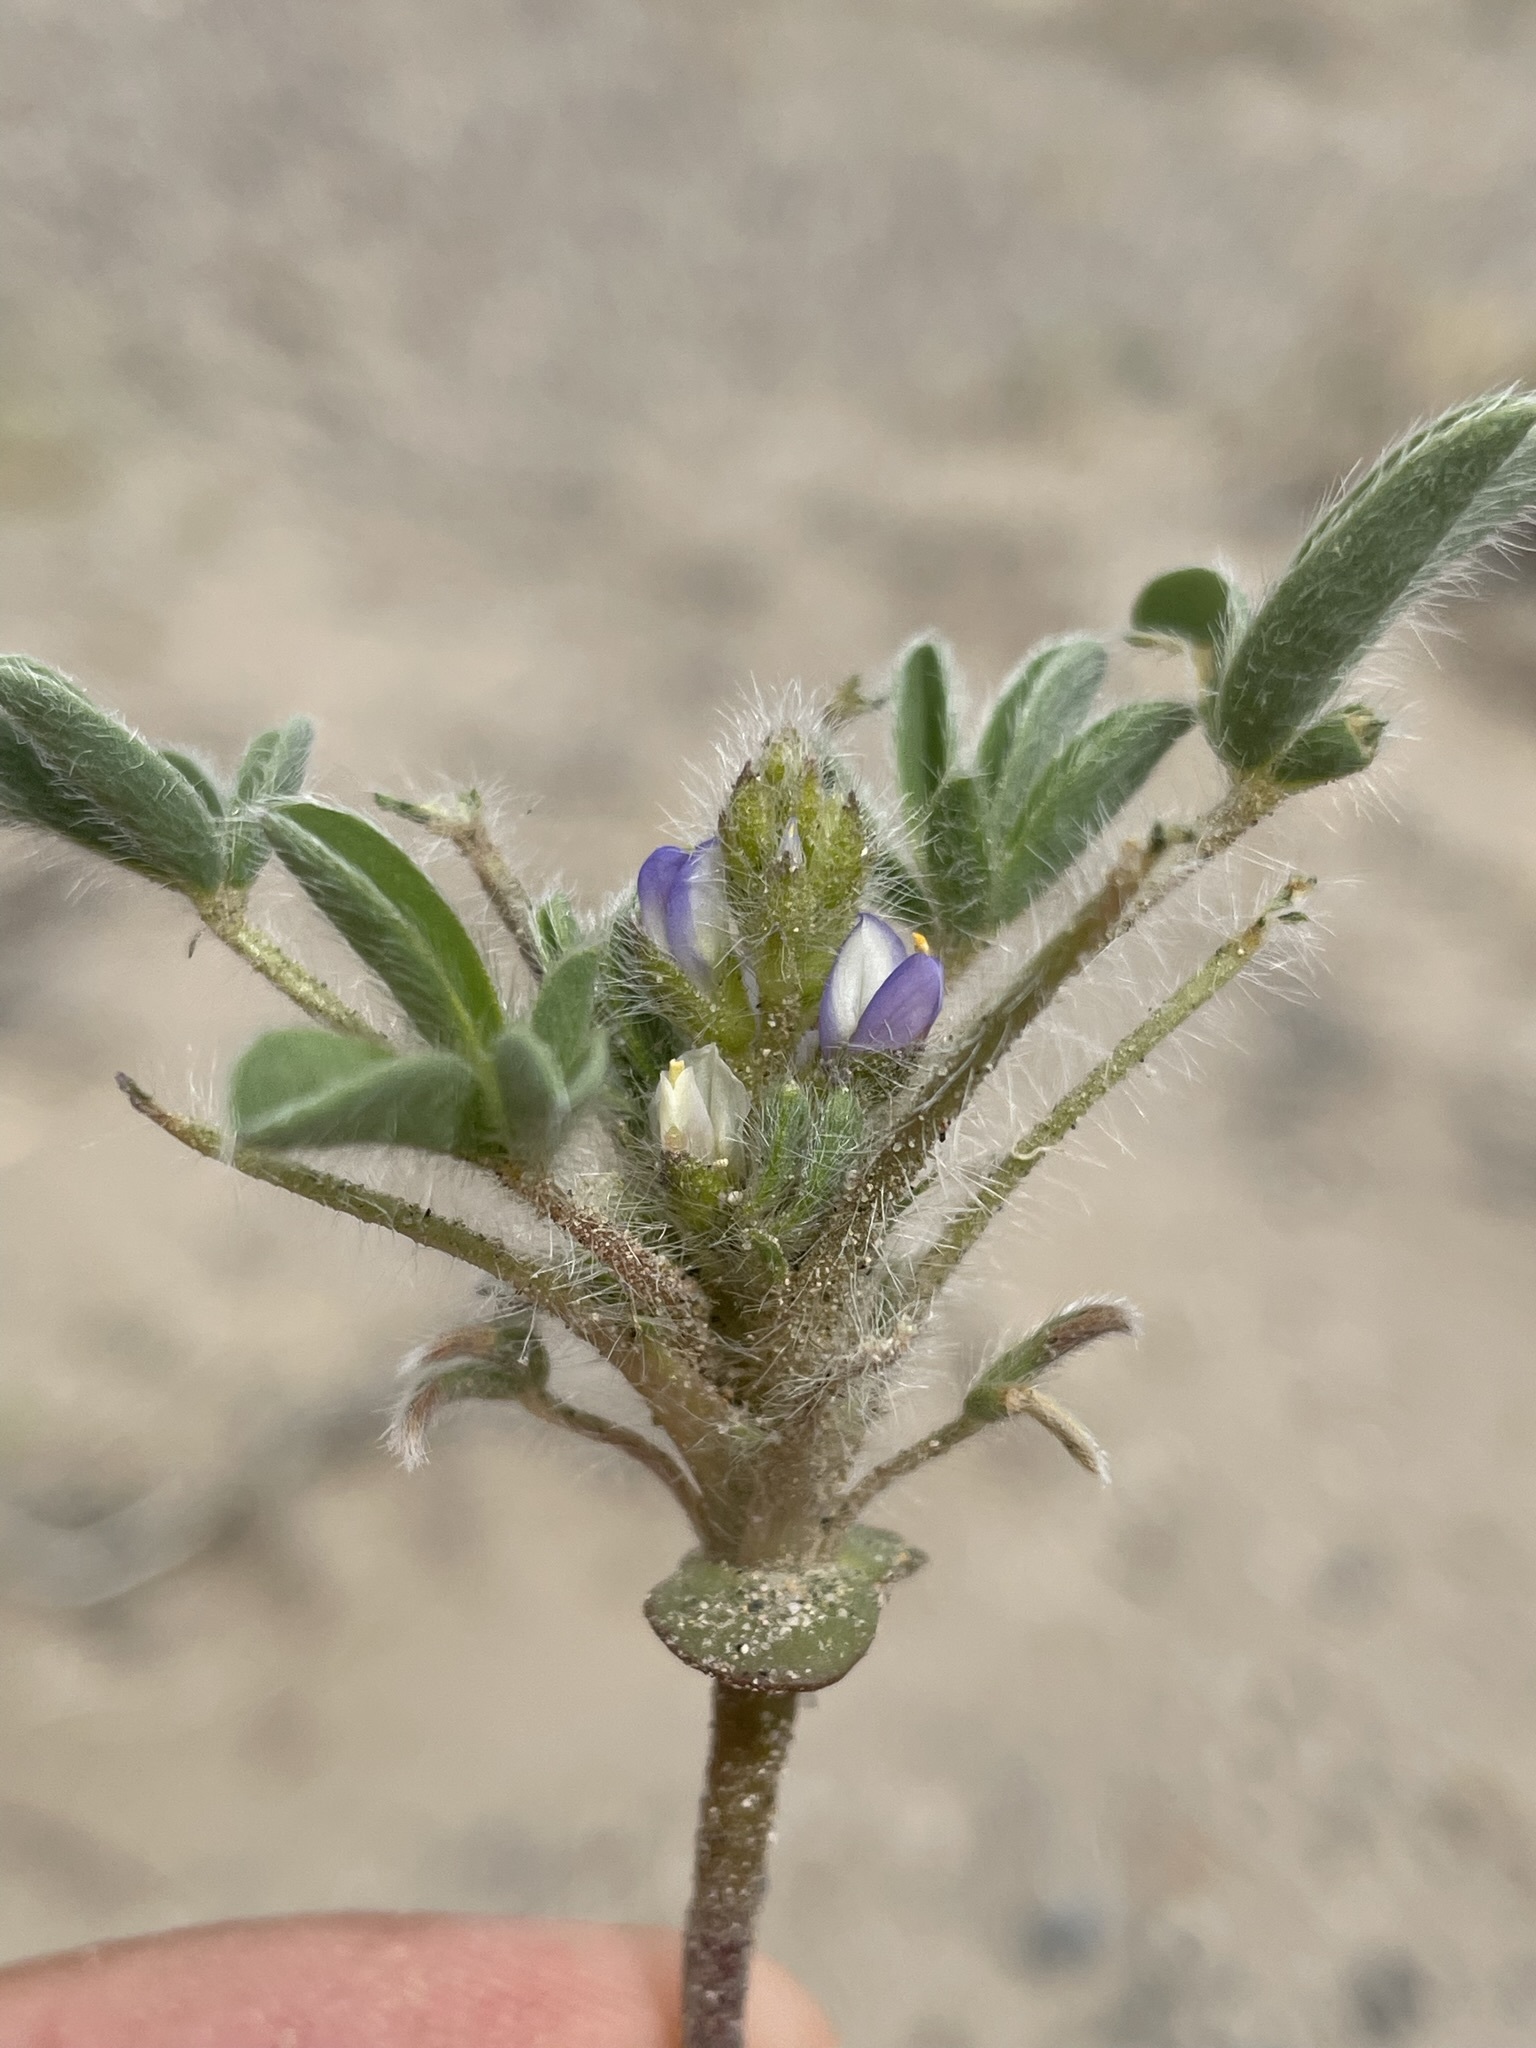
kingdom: Plantae
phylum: Tracheophyta
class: Magnoliopsida
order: Fabales
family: Fabaceae
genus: Lupinus
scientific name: Lupinus pusillus
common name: Low lupine
